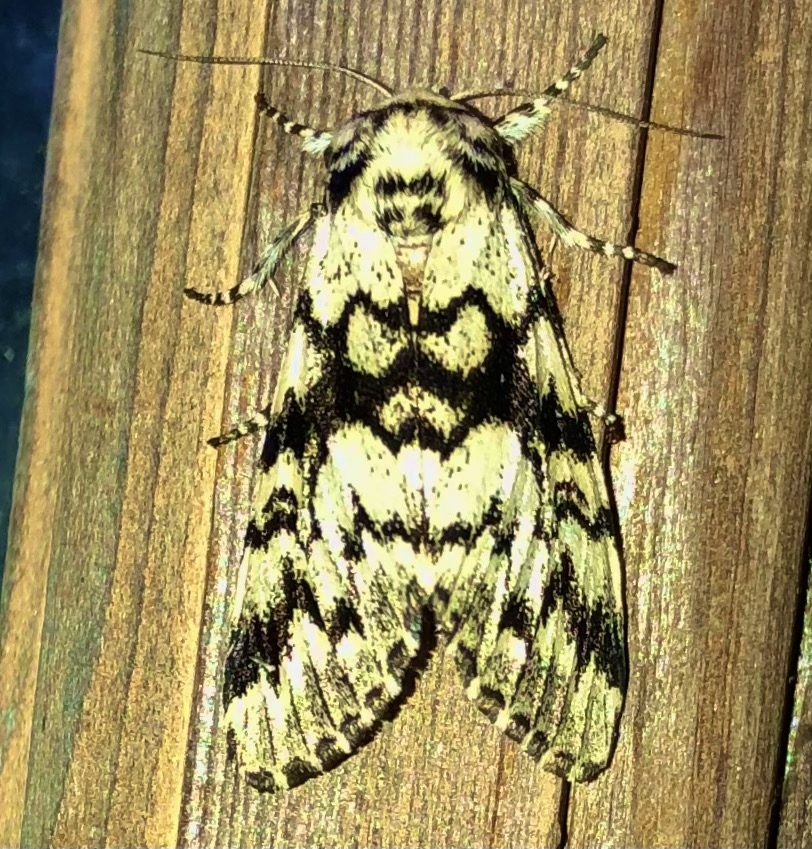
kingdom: Animalia
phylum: Arthropoda
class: Insecta
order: Lepidoptera
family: Noctuidae
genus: Panthea
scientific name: Panthea acronyctoides
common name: Black zigzag moth
